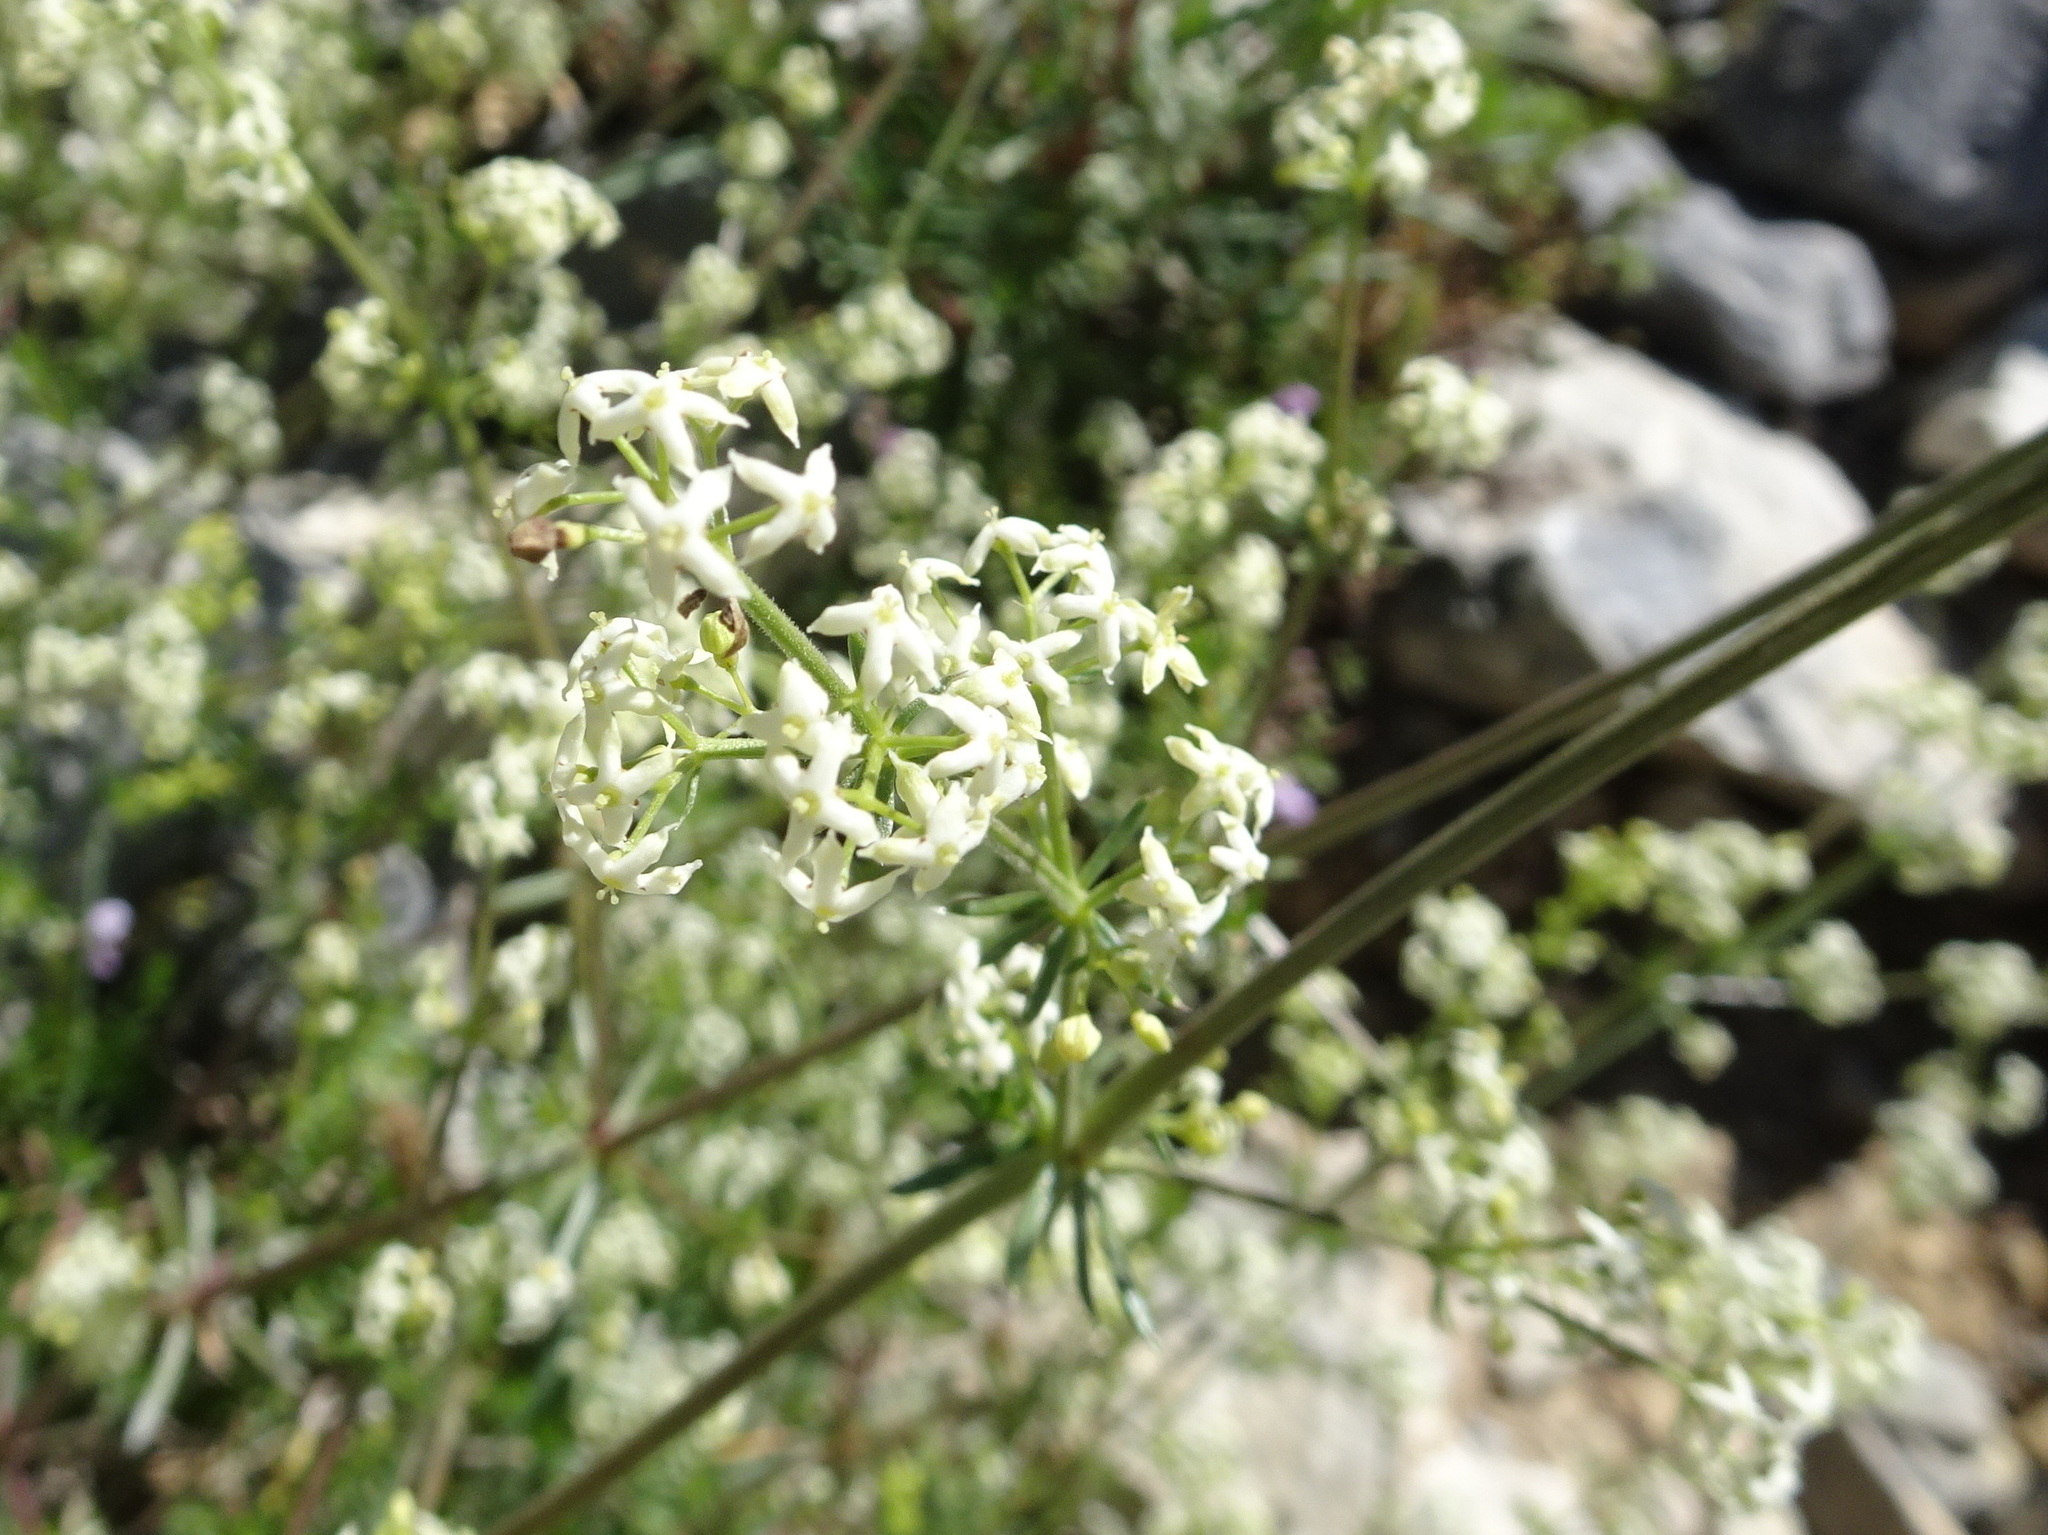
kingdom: Plantae
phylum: Tracheophyta
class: Magnoliopsida
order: Gentianales
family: Rubiaceae
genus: Galium
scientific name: Galium album
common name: White bedstraw
